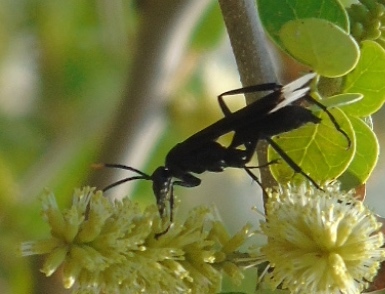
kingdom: Animalia
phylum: Arthropoda
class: Insecta
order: Hymenoptera
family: Pompilidae
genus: Pepsis
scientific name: Pepsis
